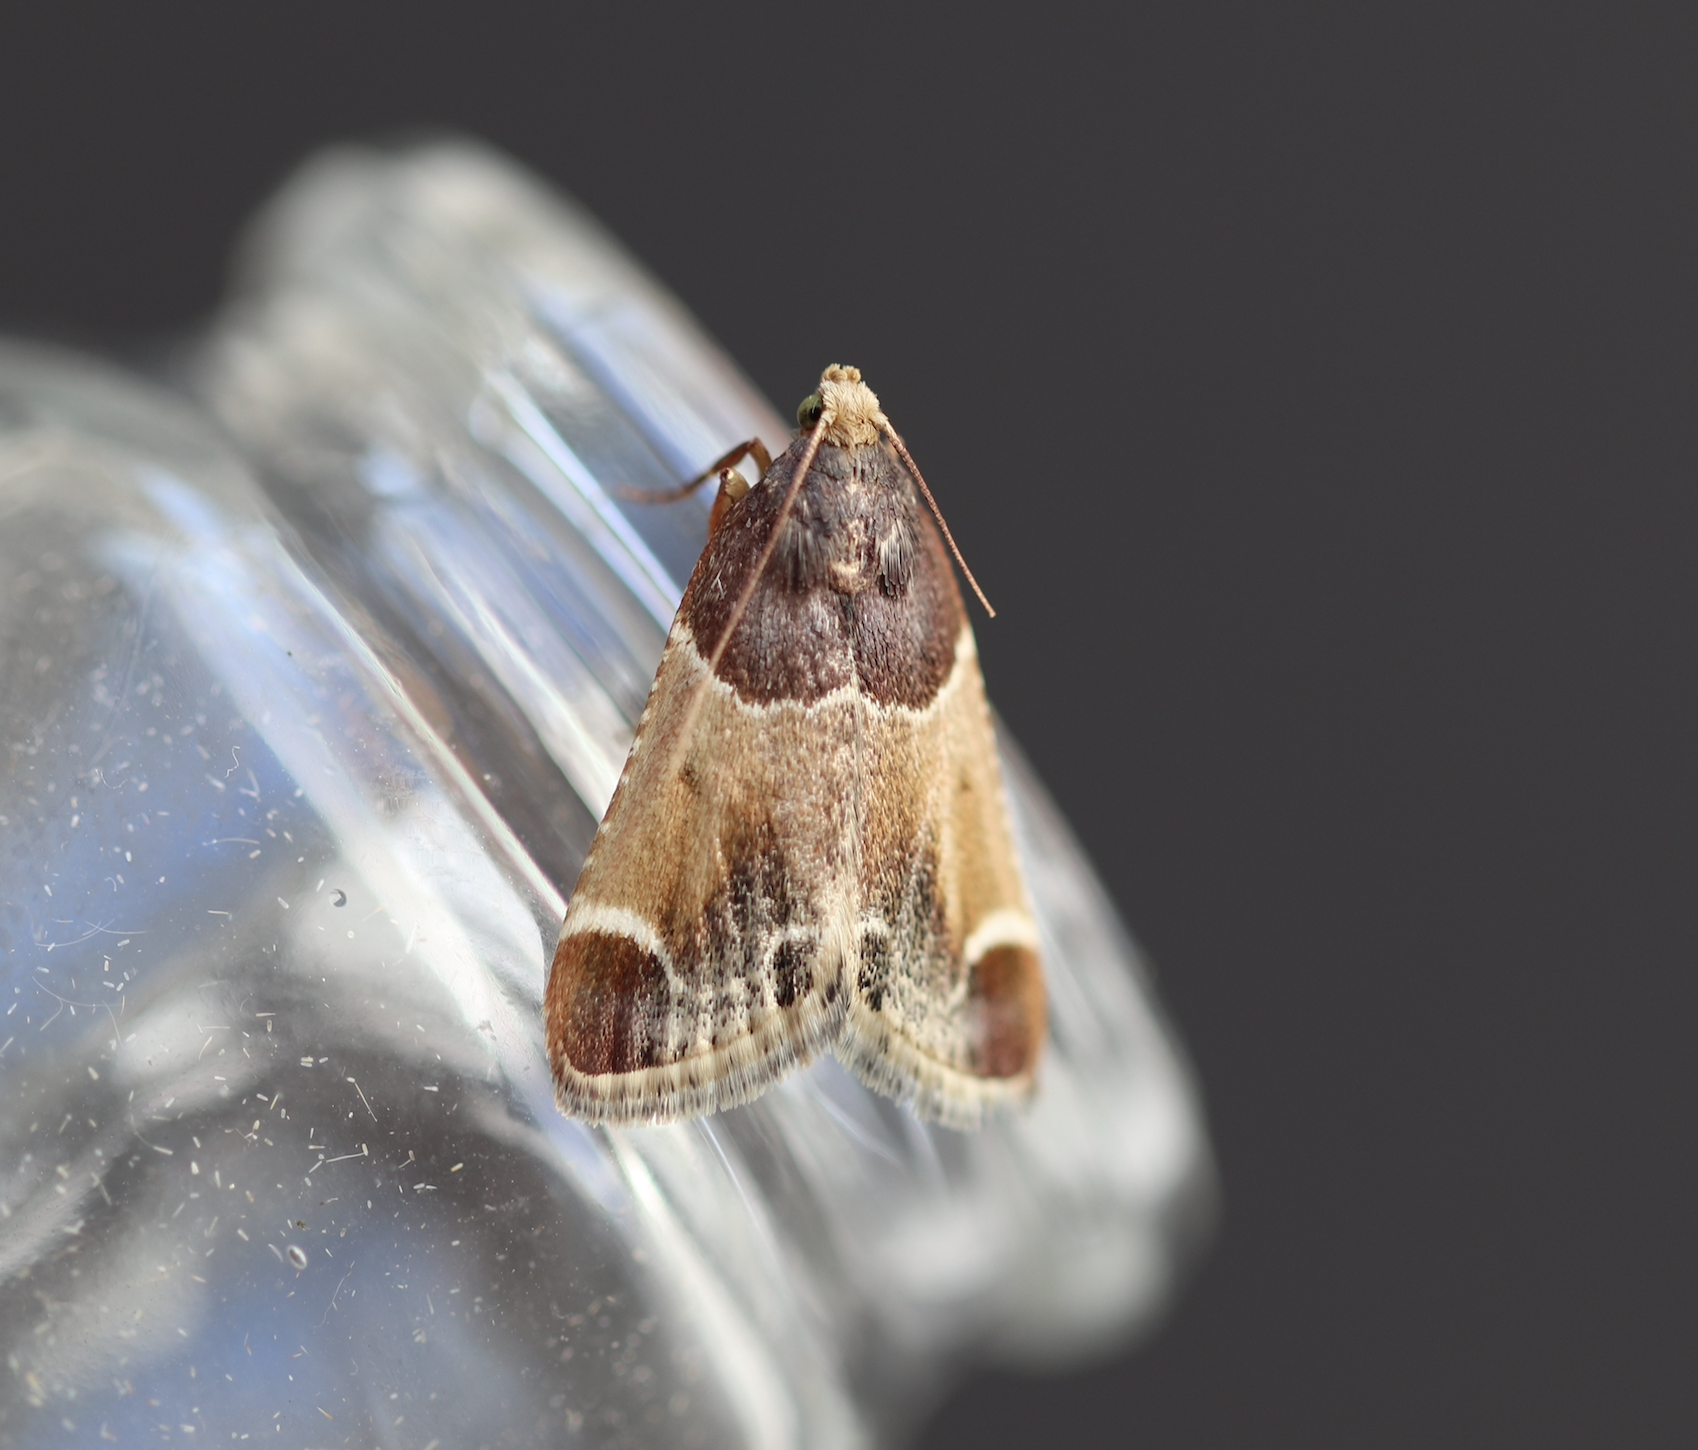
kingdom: Animalia
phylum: Arthropoda
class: Insecta
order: Lepidoptera
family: Pyralidae
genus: Pyralis
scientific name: Pyralis farinalis
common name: Meal moth
